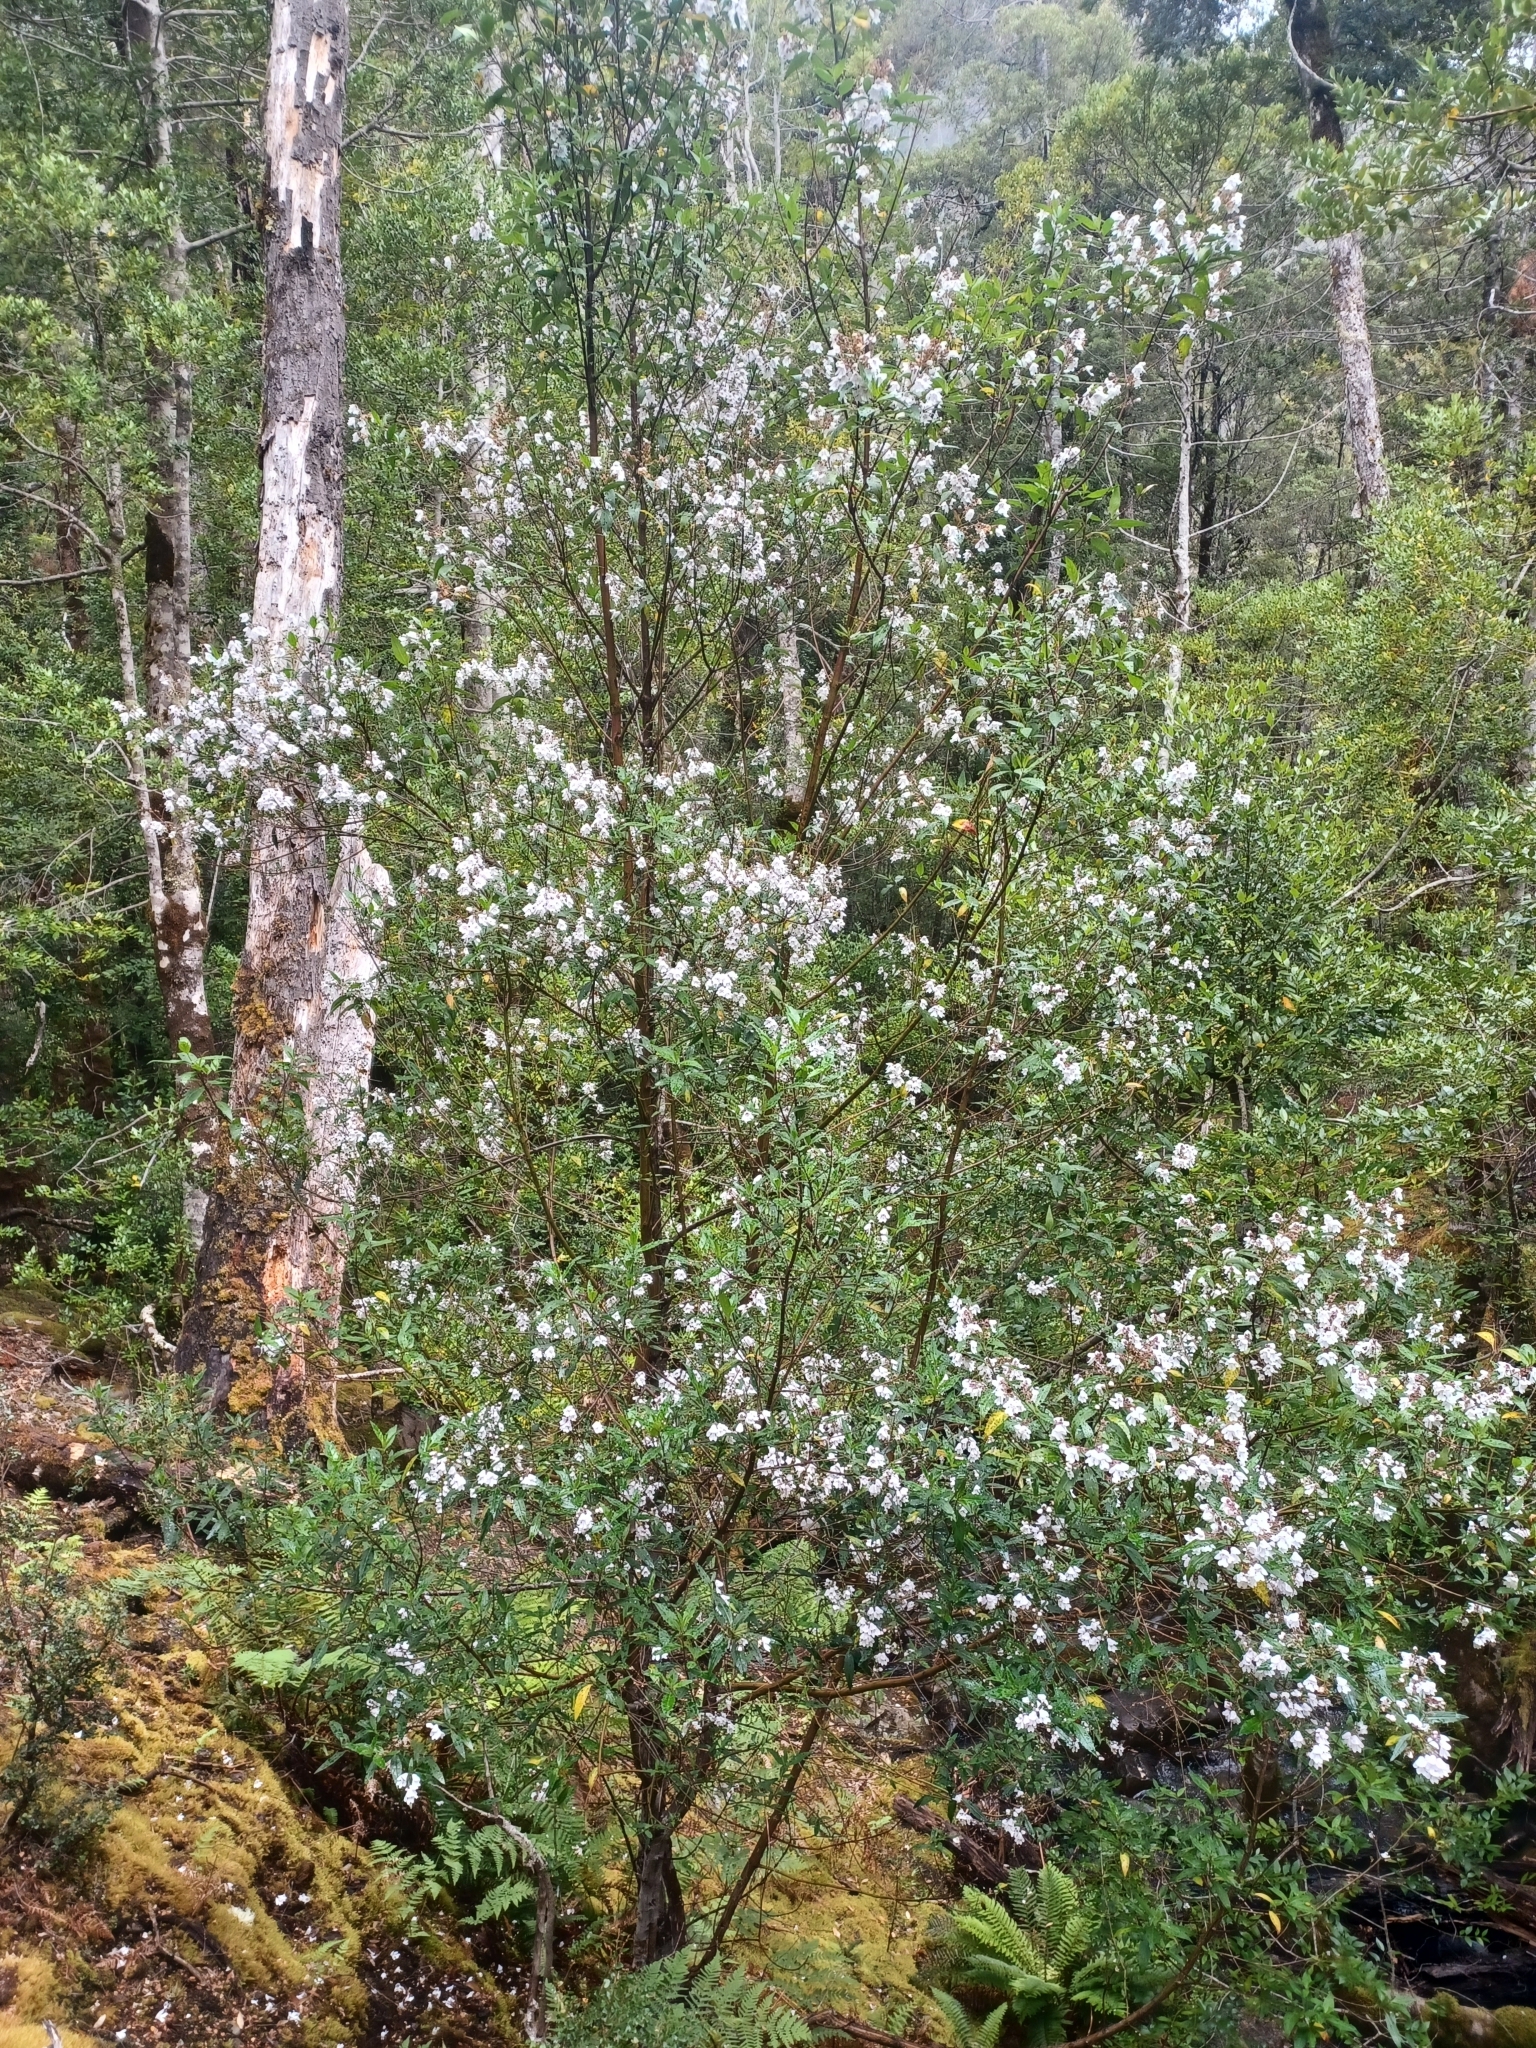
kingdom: Plantae
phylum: Tracheophyta
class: Magnoliopsida
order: Lamiales
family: Lamiaceae
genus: Prostanthera
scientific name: Prostanthera lasianthos
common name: Mountain-lilac
